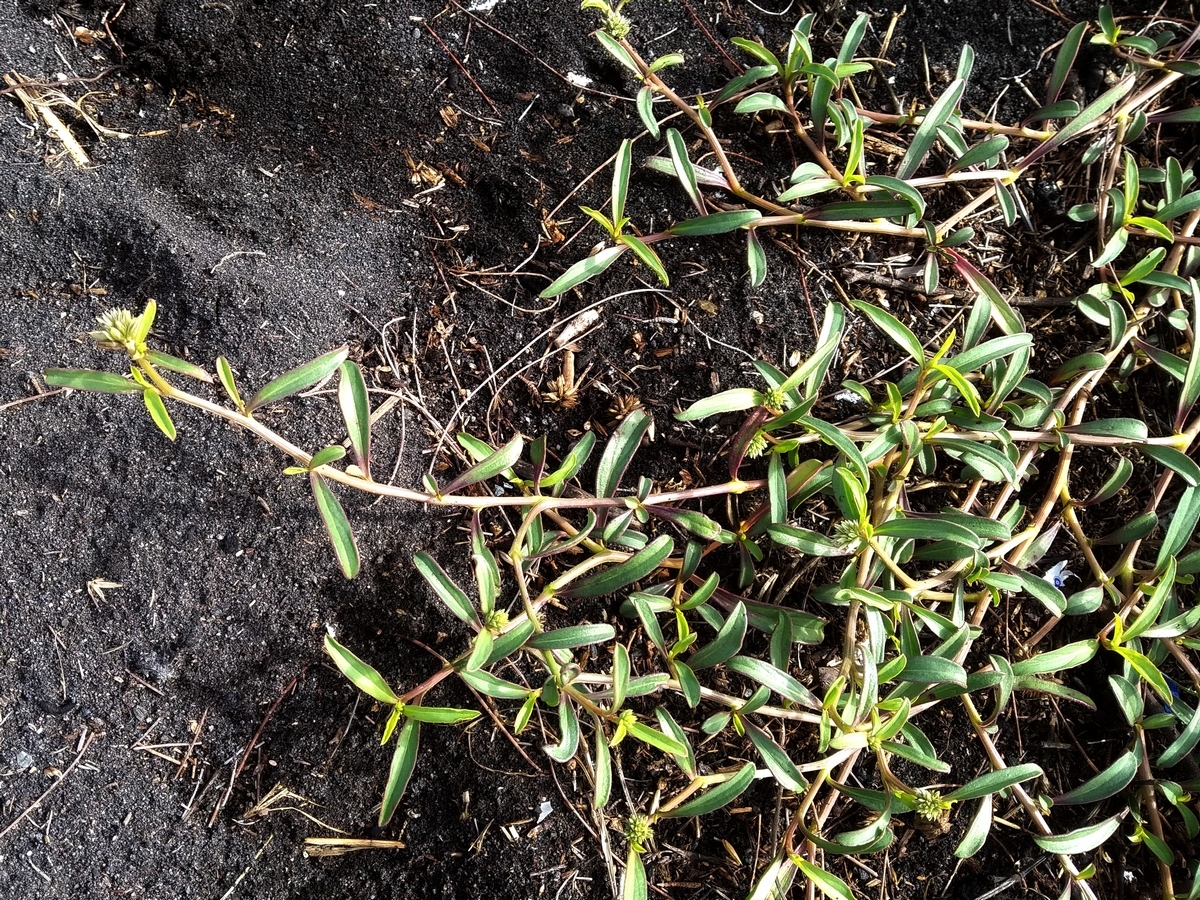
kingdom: Plantae
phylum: Tracheophyta
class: Magnoliopsida
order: Caryophyllales
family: Amaranthaceae
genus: Allmania
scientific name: Allmania nodiflora
